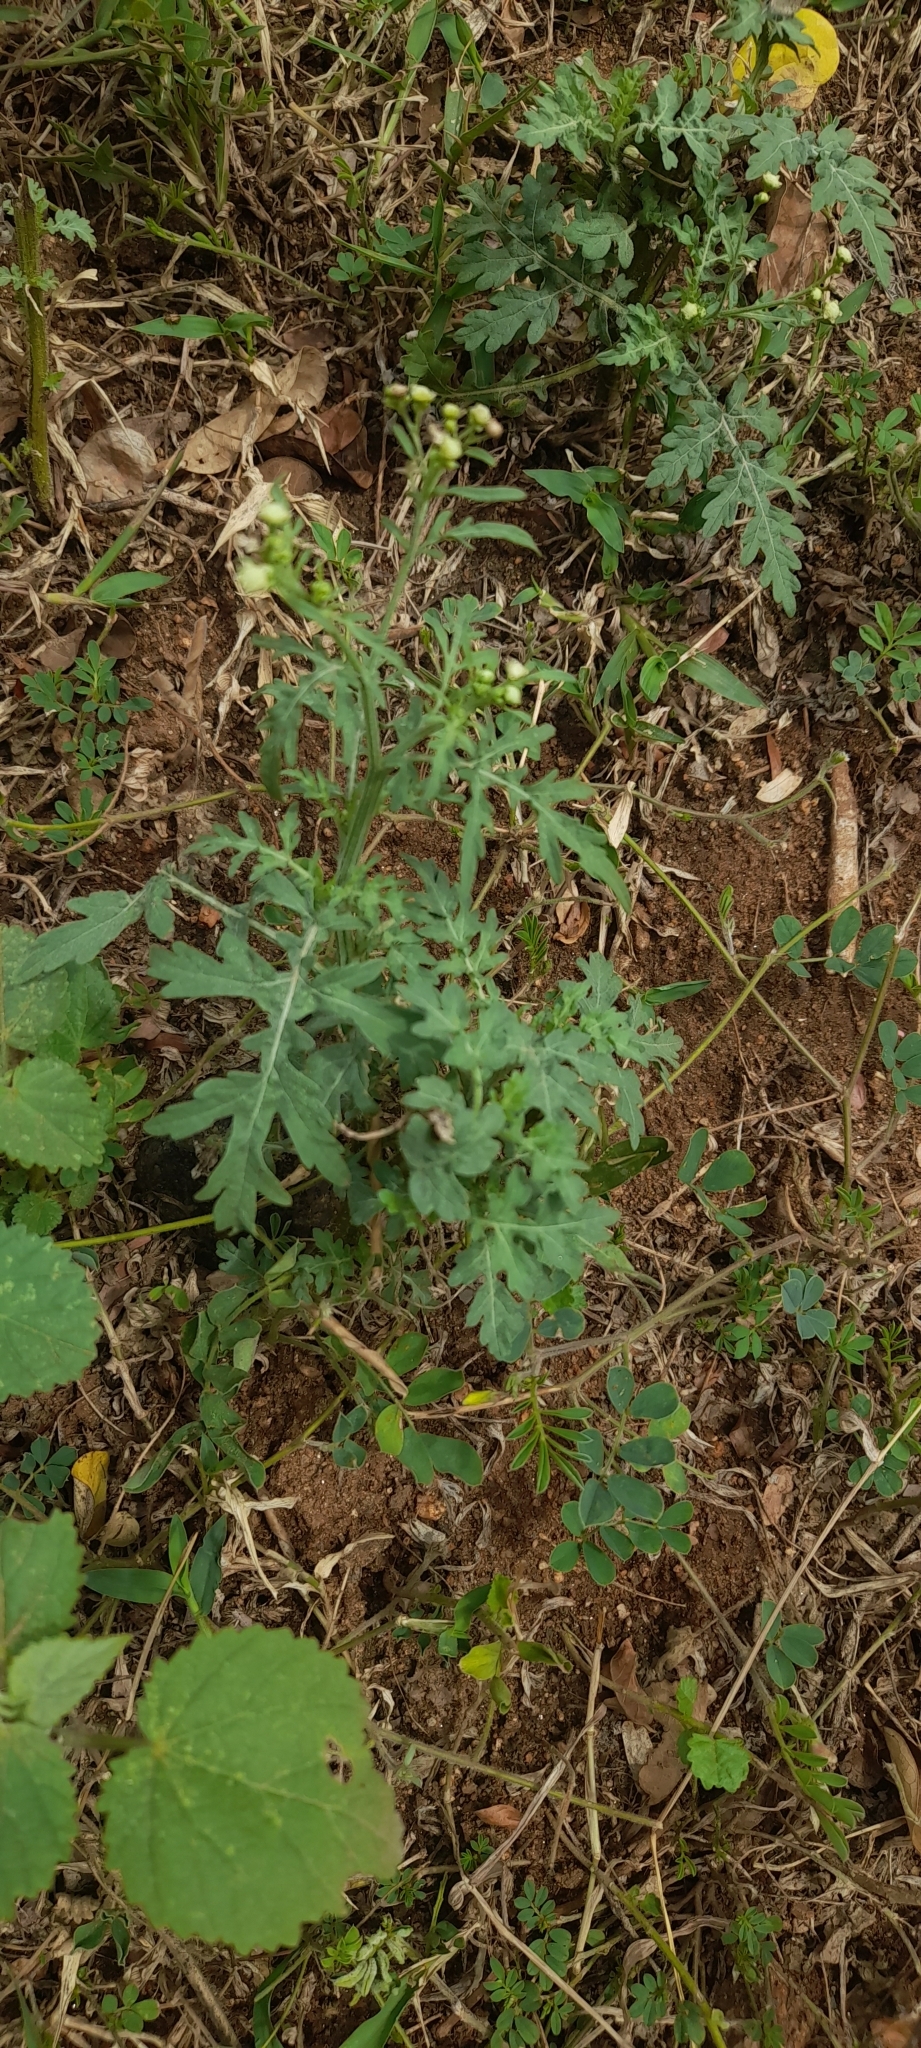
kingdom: Plantae
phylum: Tracheophyta
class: Magnoliopsida
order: Asterales
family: Asteraceae
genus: Parthenium
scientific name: Parthenium hysterophorus
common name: Santa maria feverfew
